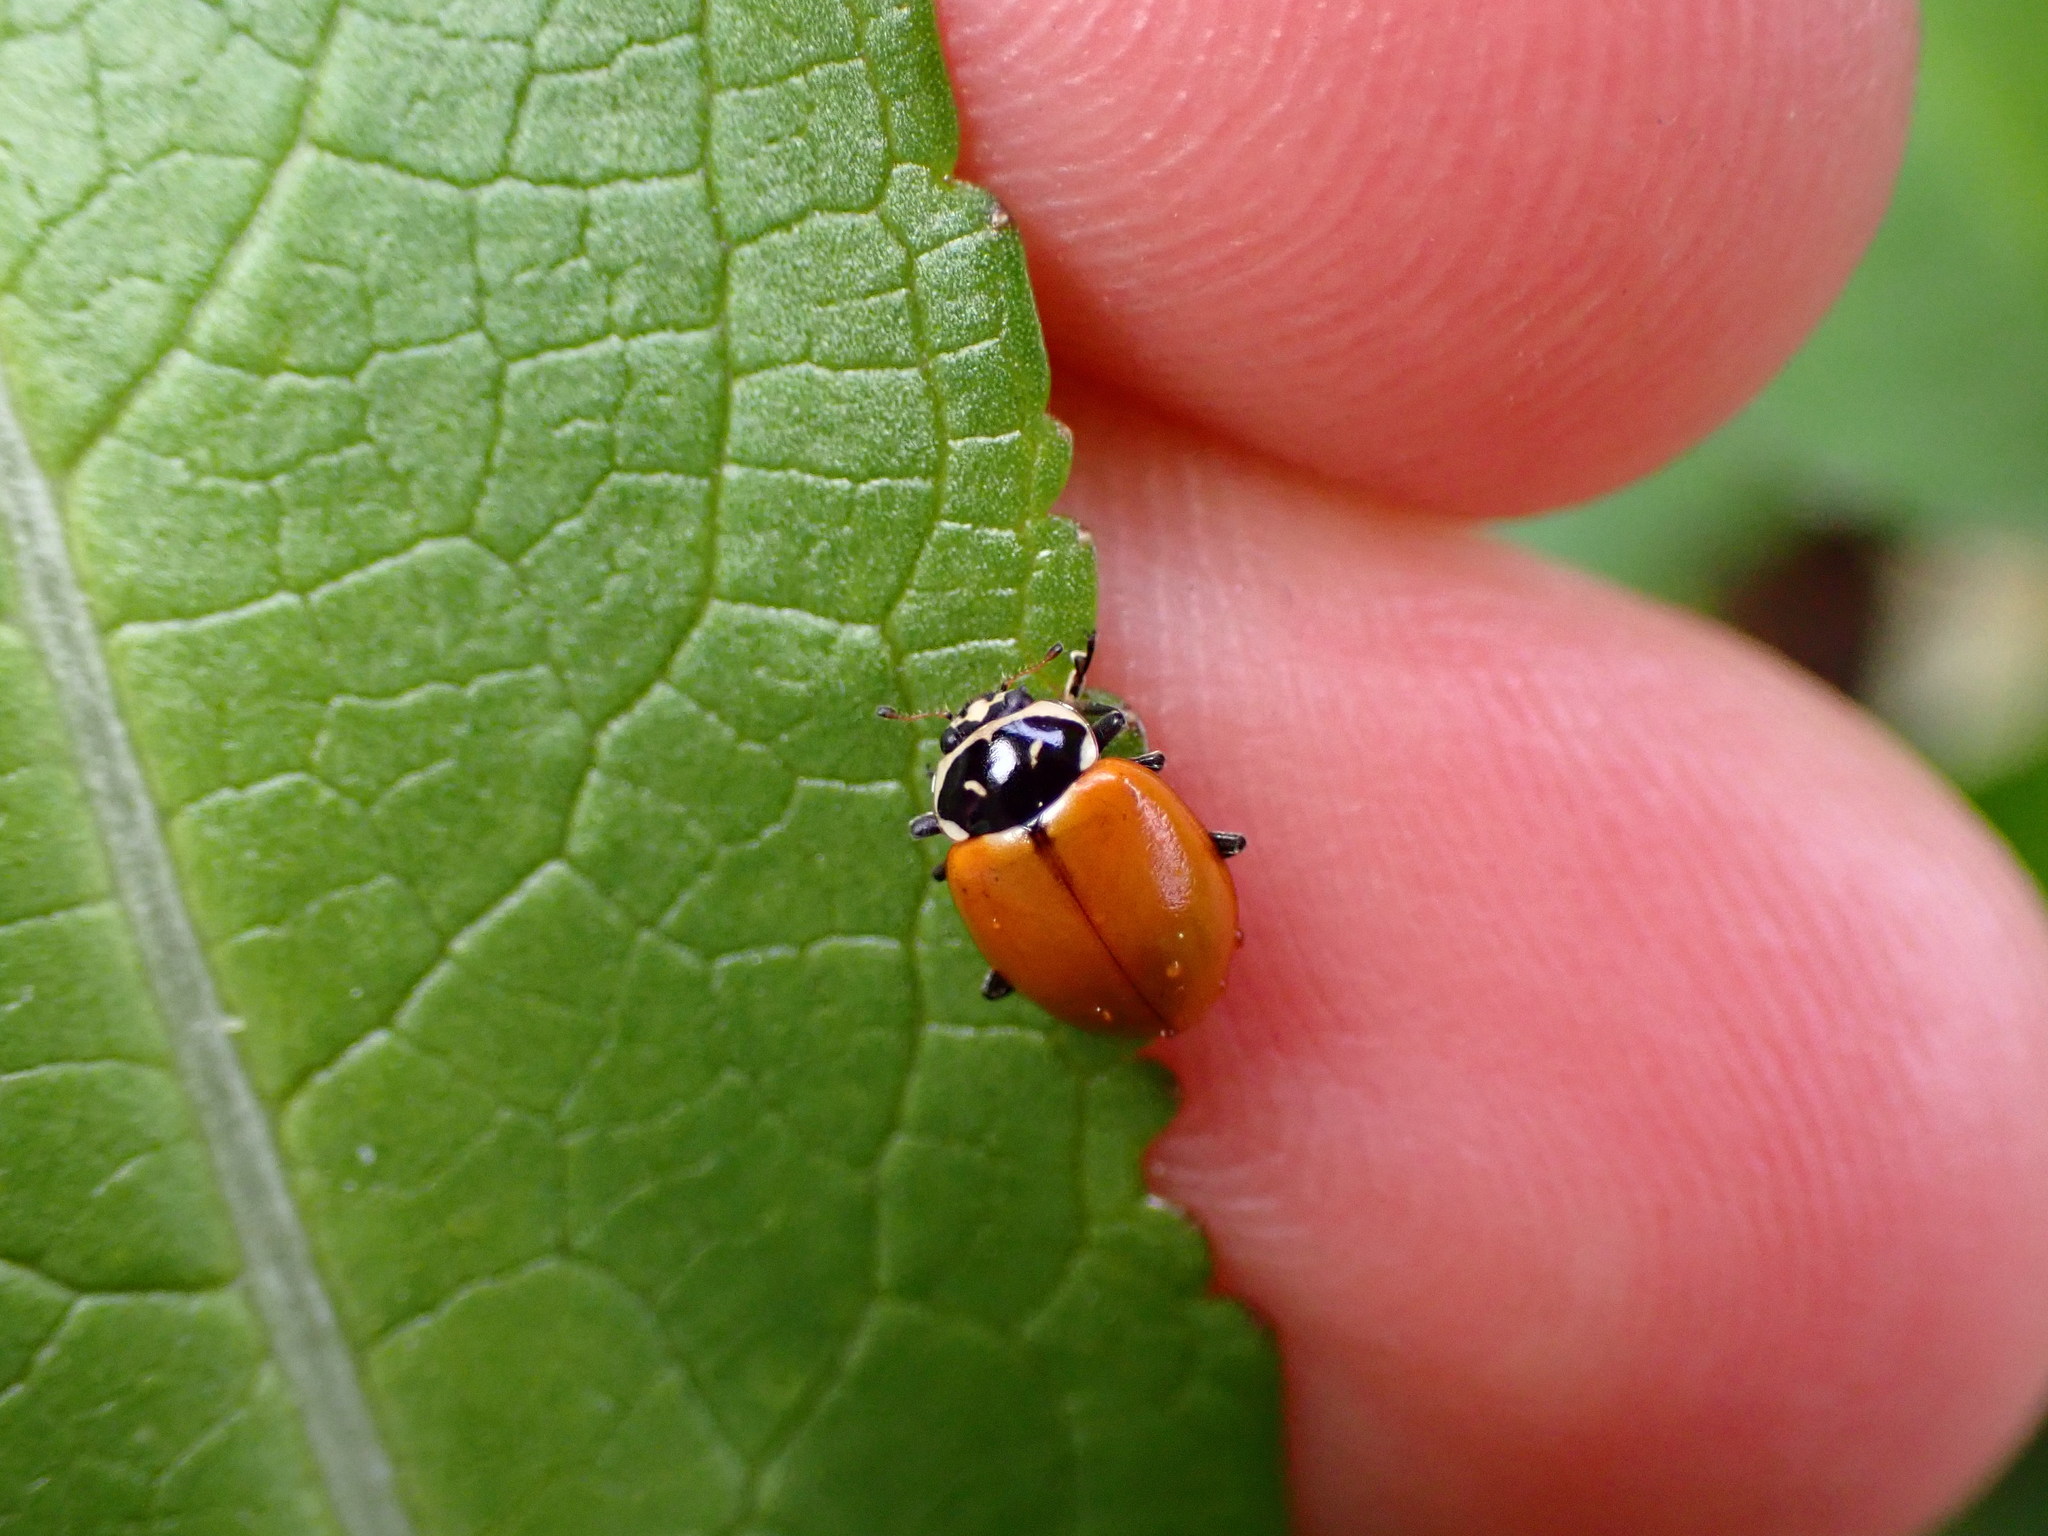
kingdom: Animalia
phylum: Arthropoda
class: Insecta
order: Coleoptera
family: Coccinellidae
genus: Hippodamia
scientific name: Hippodamia convergens
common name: Convergent lady beetle
